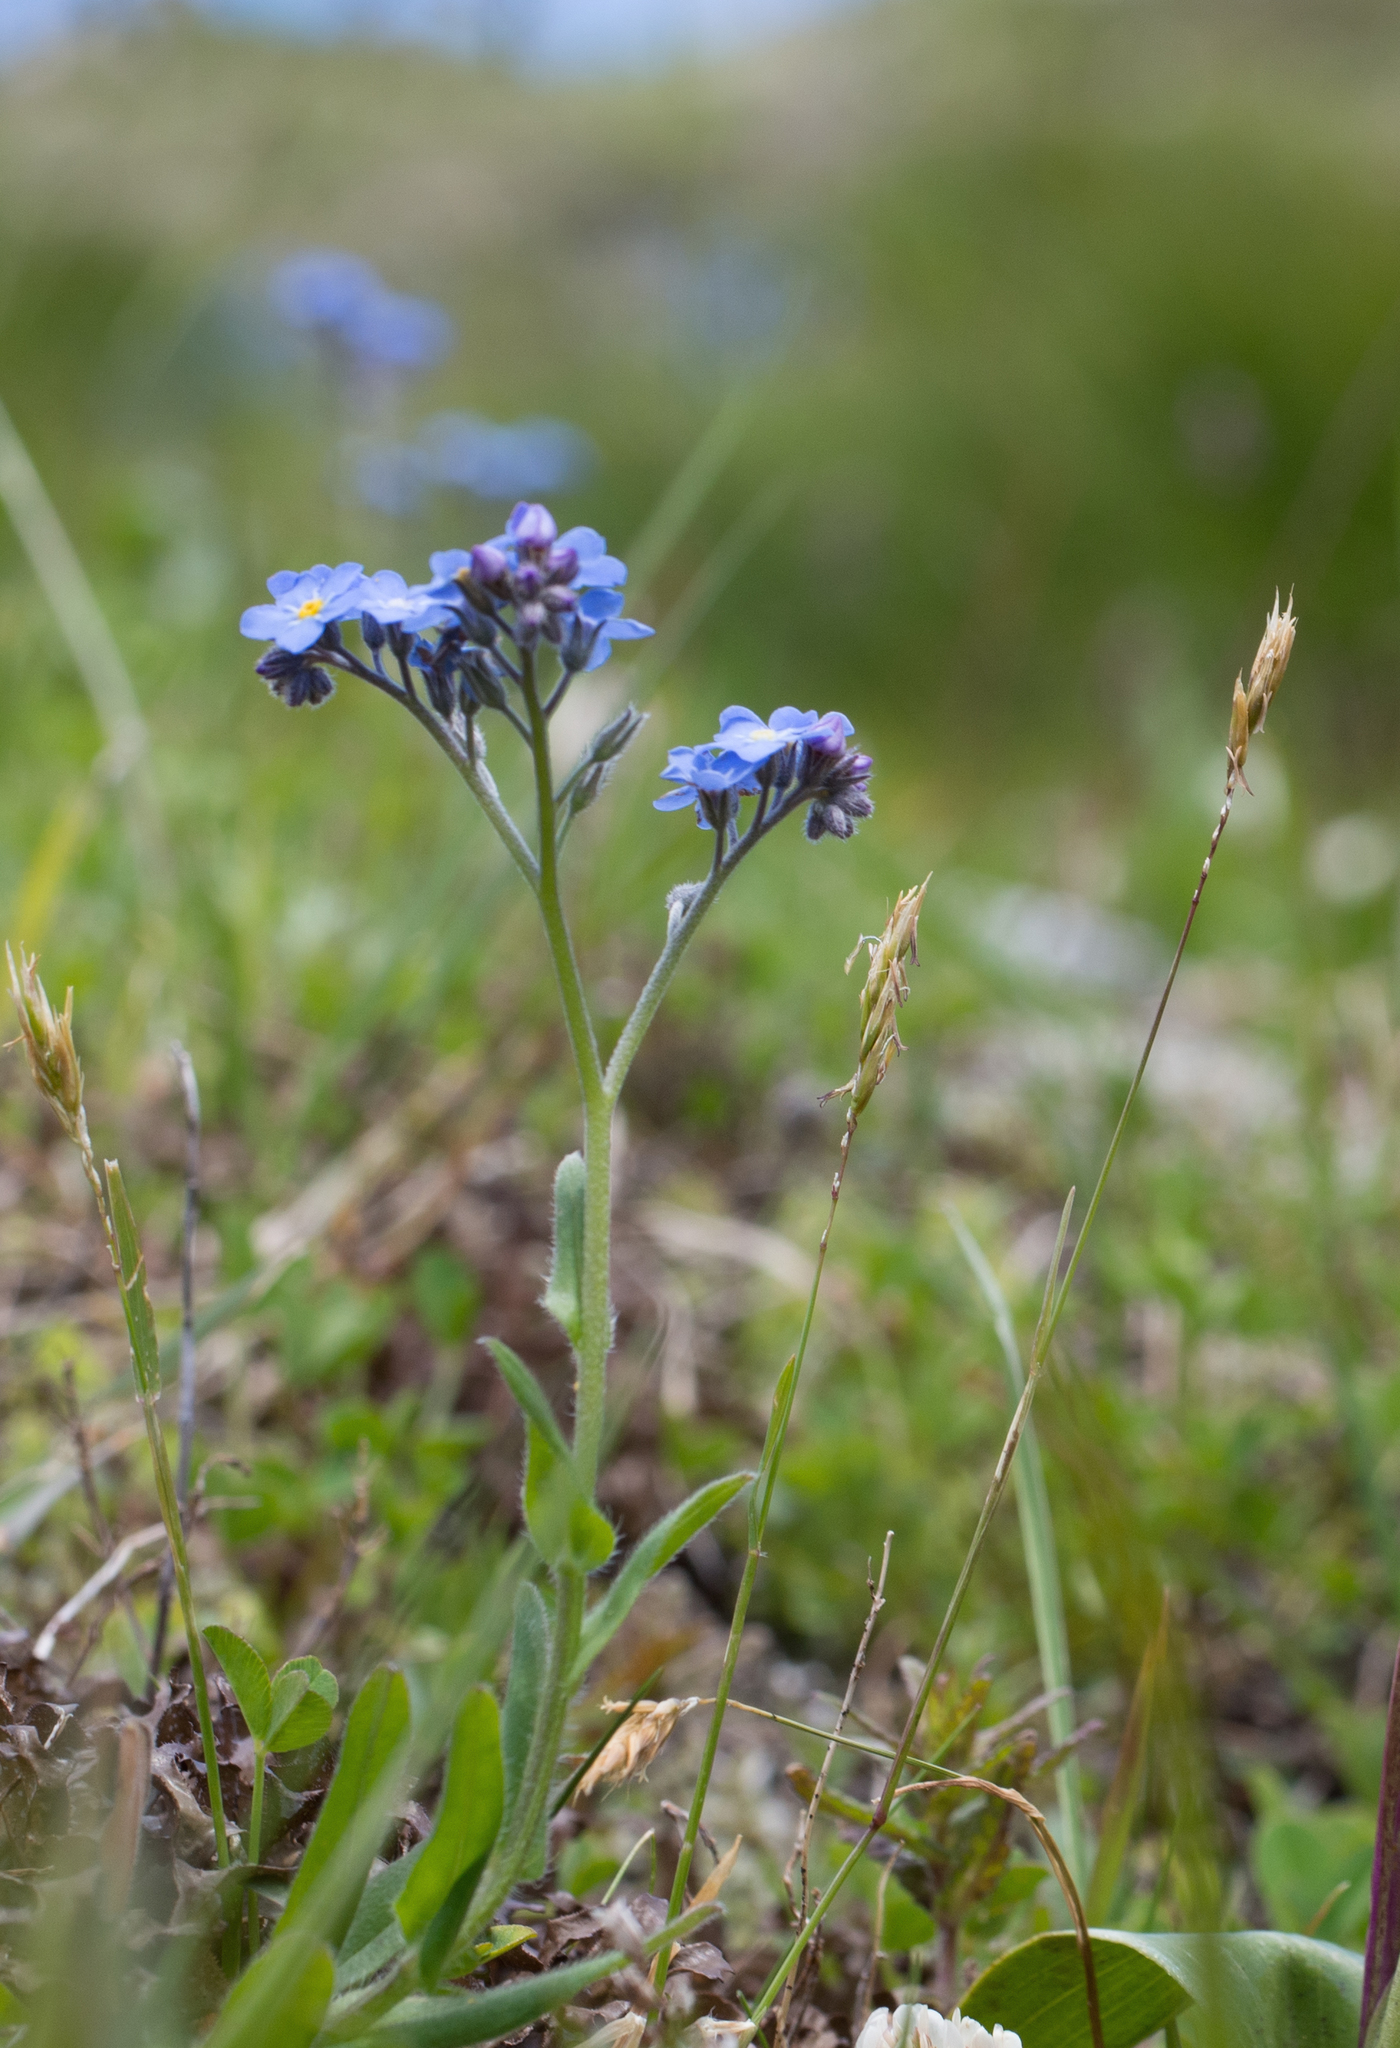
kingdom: Plantae
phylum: Tracheophyta
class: Magnoliopsida
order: Boraginales
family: Boraginaceae
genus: Myosotis
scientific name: Myosotis alpestris
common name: Alpine forget-me-not
